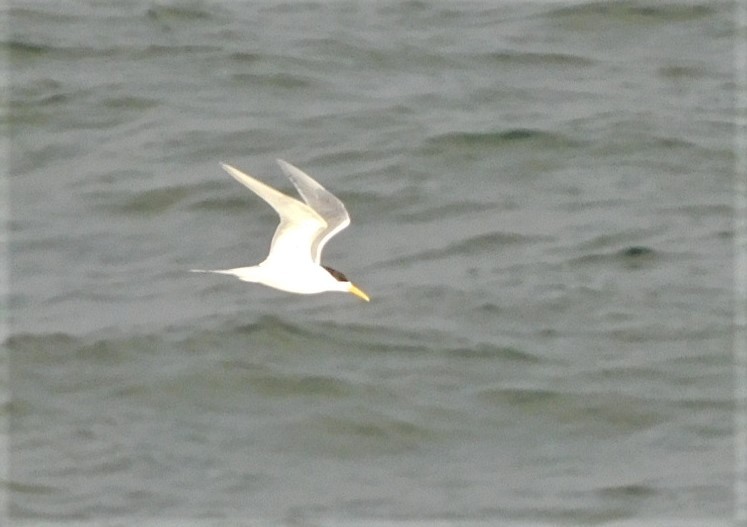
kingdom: Animalia
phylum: Chordata
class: Aves
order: Charadriiformes
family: Laridae
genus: Thalasseus
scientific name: Thalasseus bergii
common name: Greater crested tern
